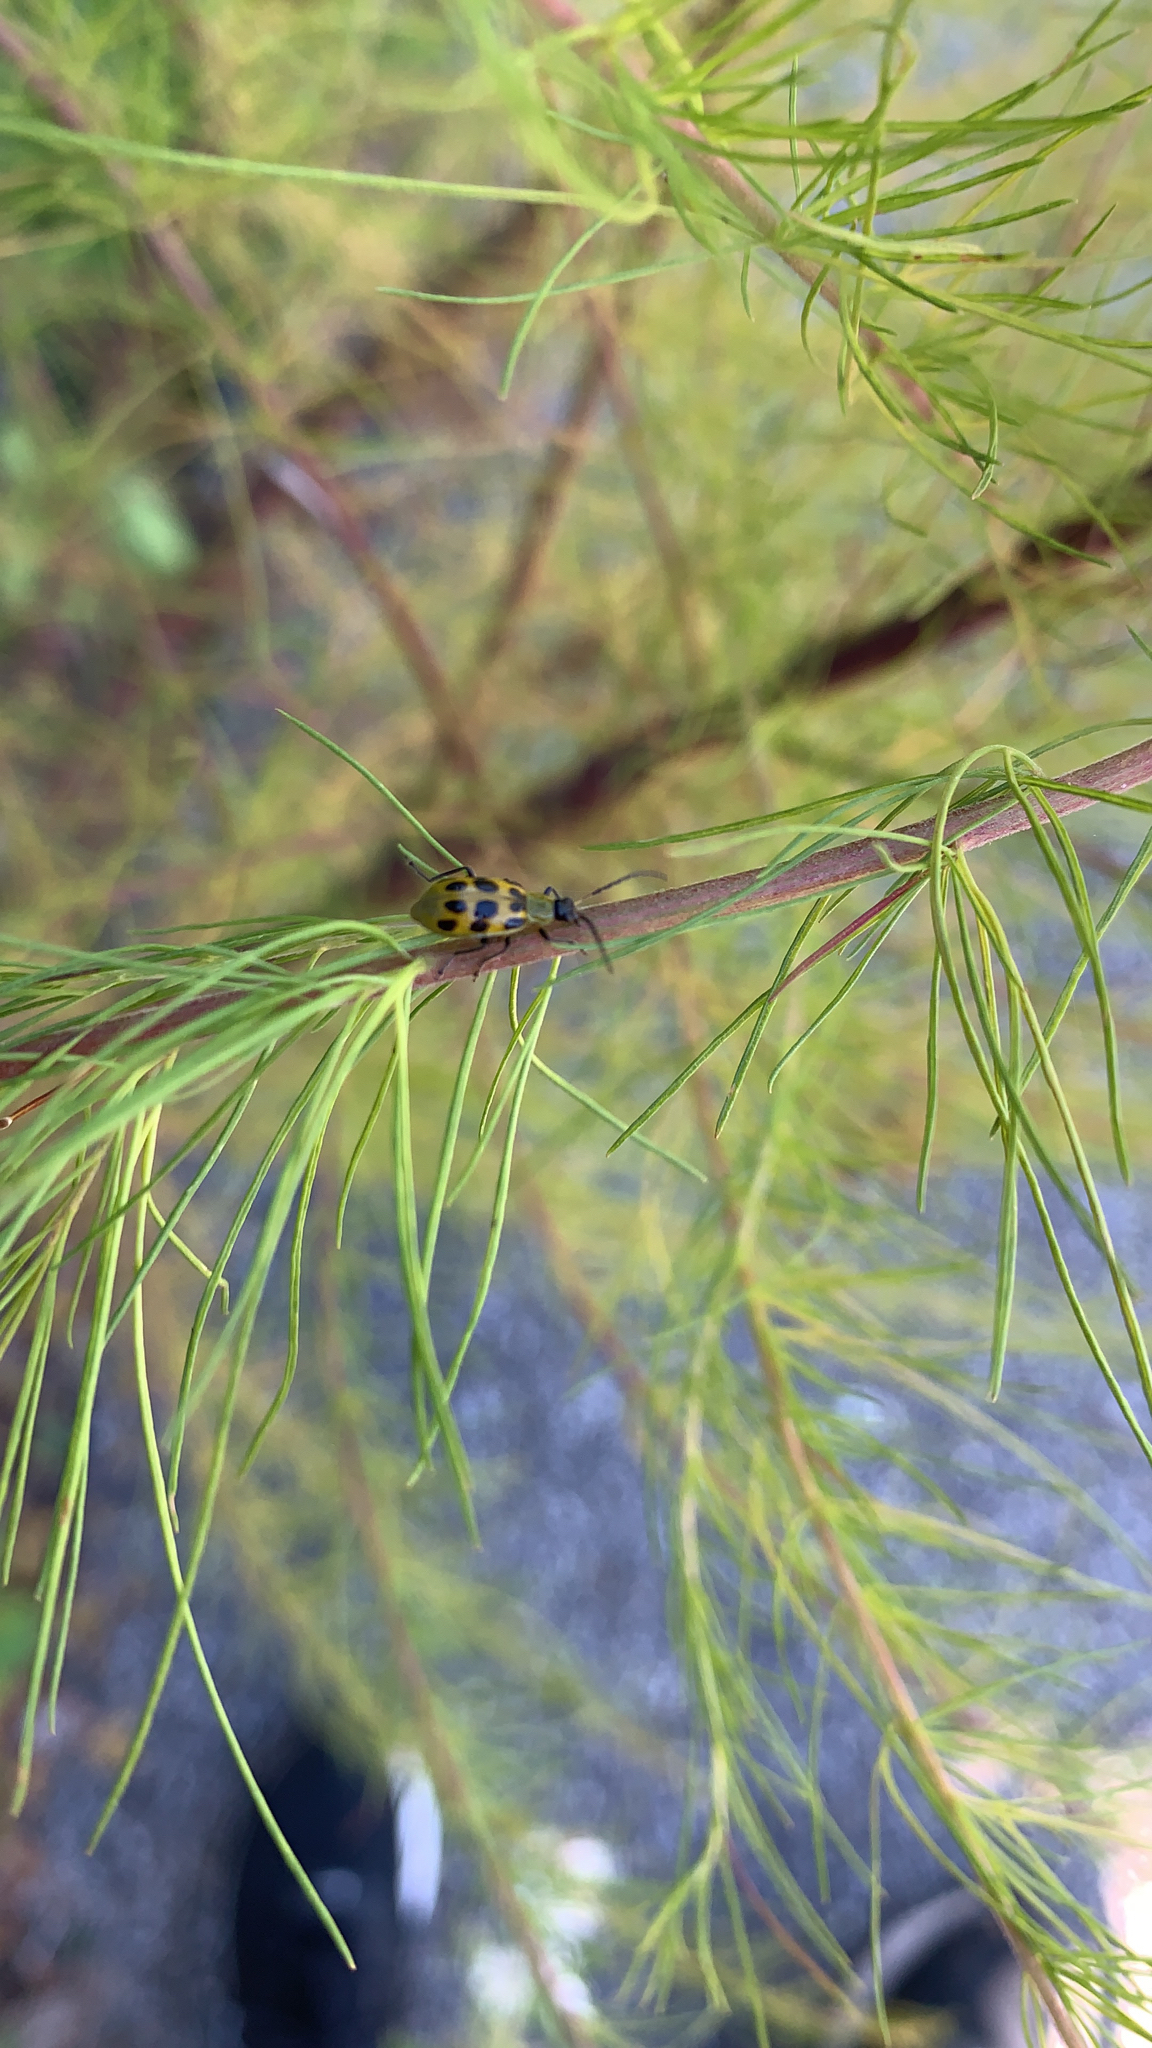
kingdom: Animalia
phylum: Arthropoda
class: Insecta
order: Coleoptera
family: Chrysomelidae
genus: Diabrotica
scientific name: Diabrotica undecimpunctata
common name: Spotted cucumber beetle
